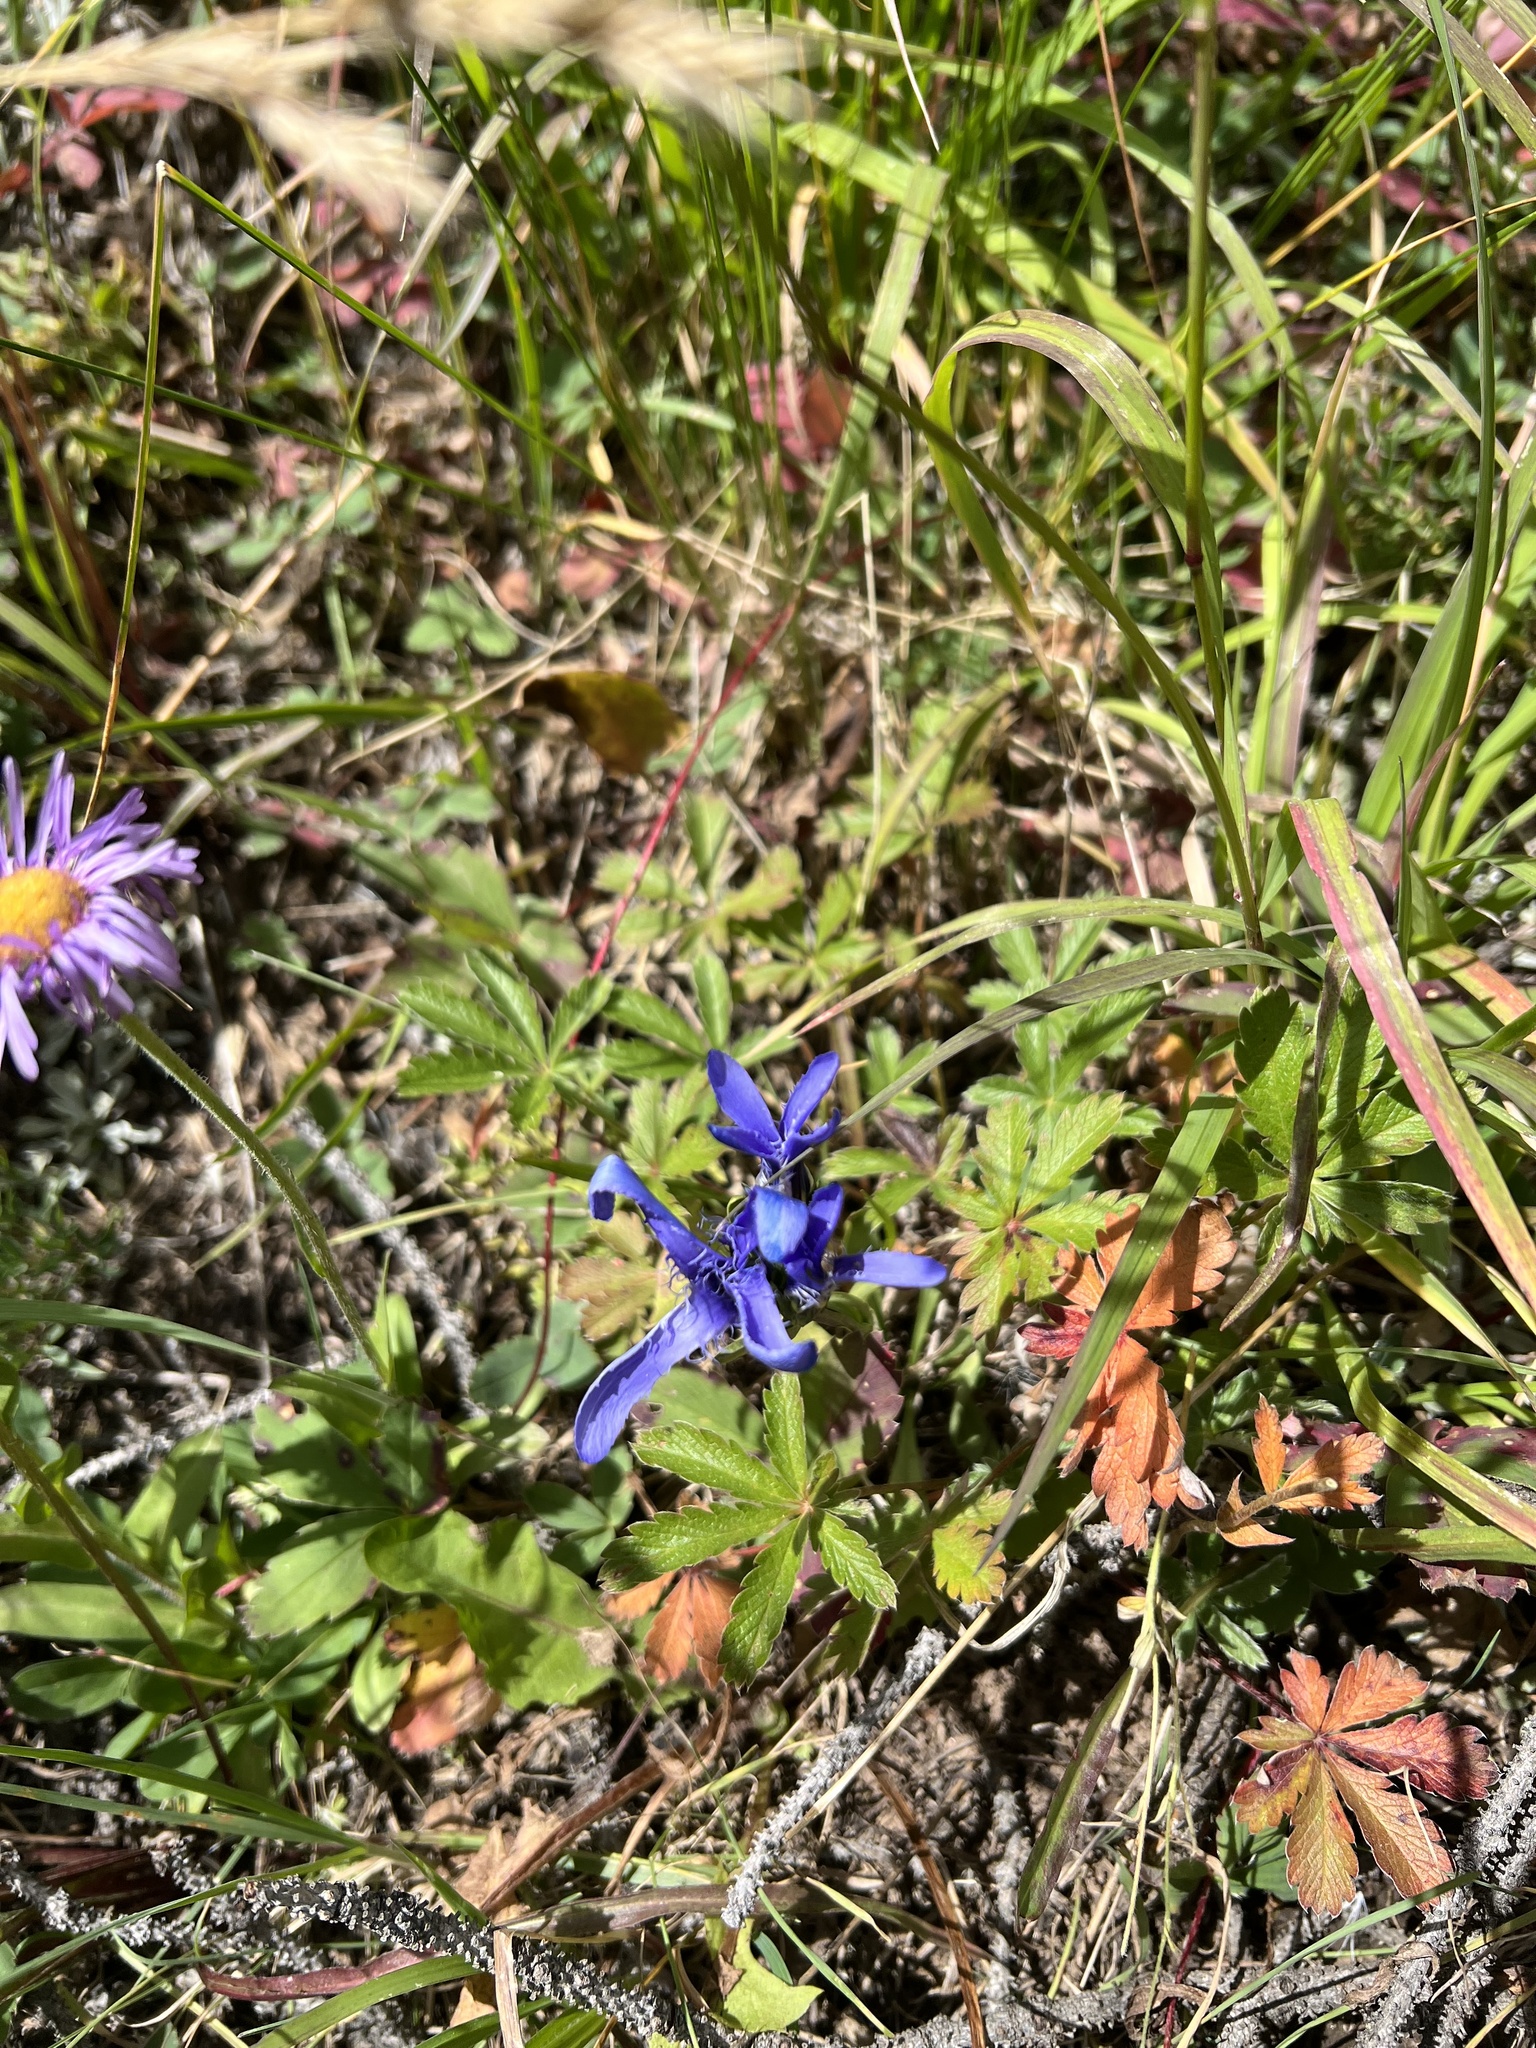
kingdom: Plantae
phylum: Tracheophyta
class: Magnoliopsida
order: Gentianales
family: Gentianaceae
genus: Gentianopsis
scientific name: Gentianopsis barbellata
